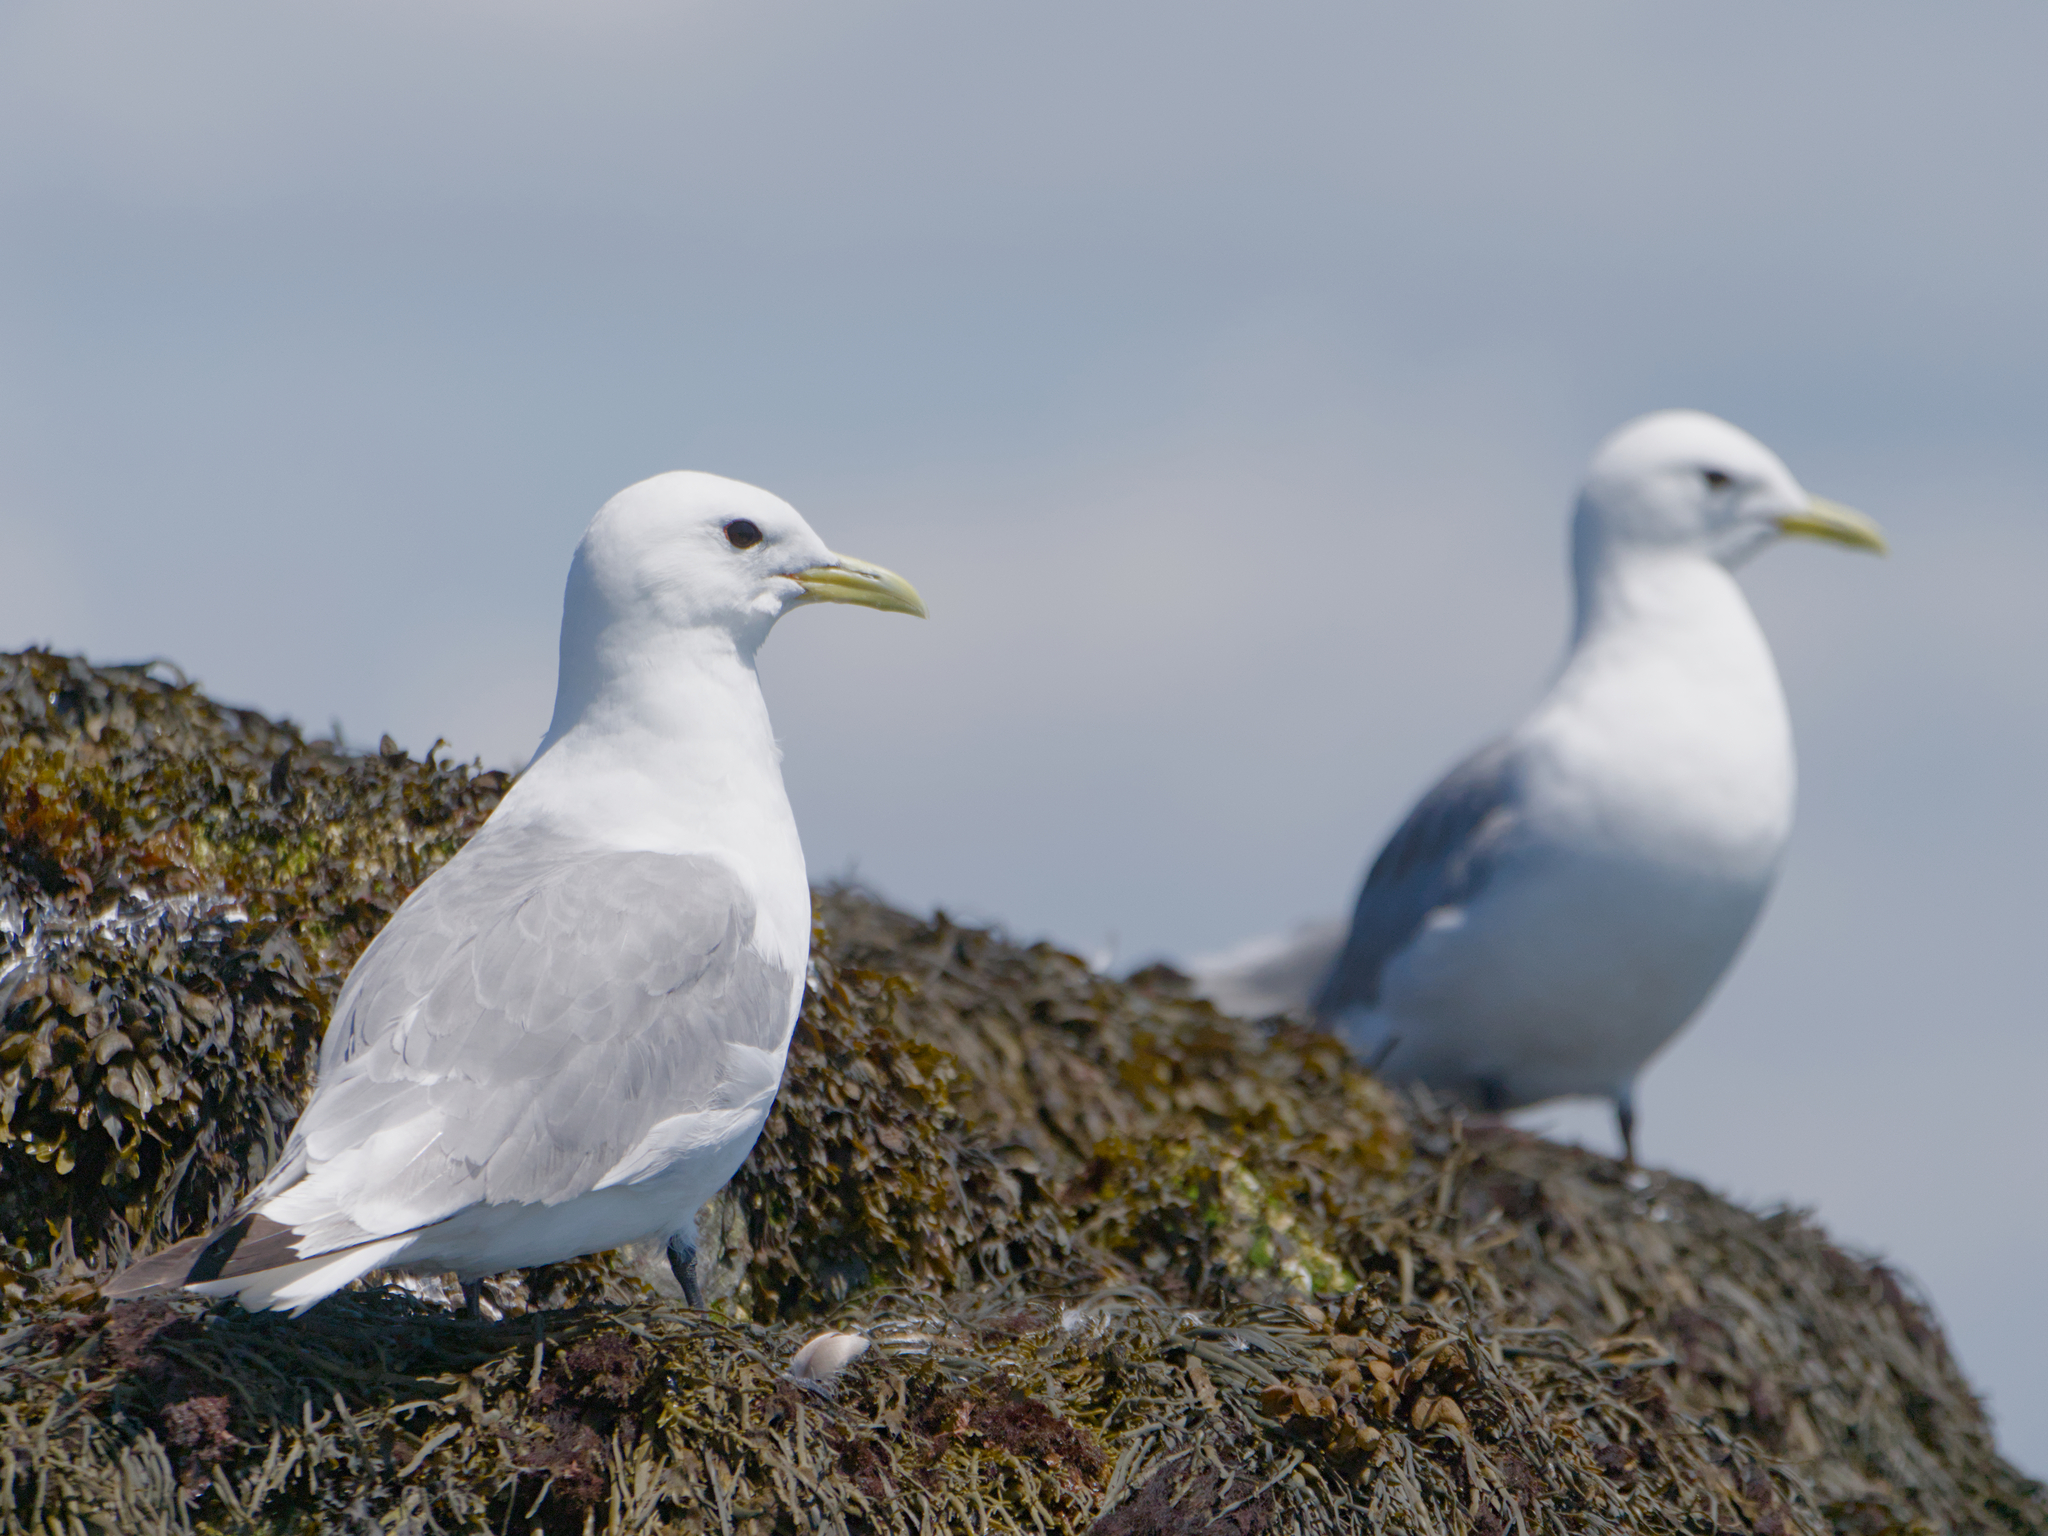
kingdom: Animalia
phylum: Chordata
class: Aves
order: Charadriiformes
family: Laridae
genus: Rissa
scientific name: Rissa tridactyla
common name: Black-legged kittiwake
